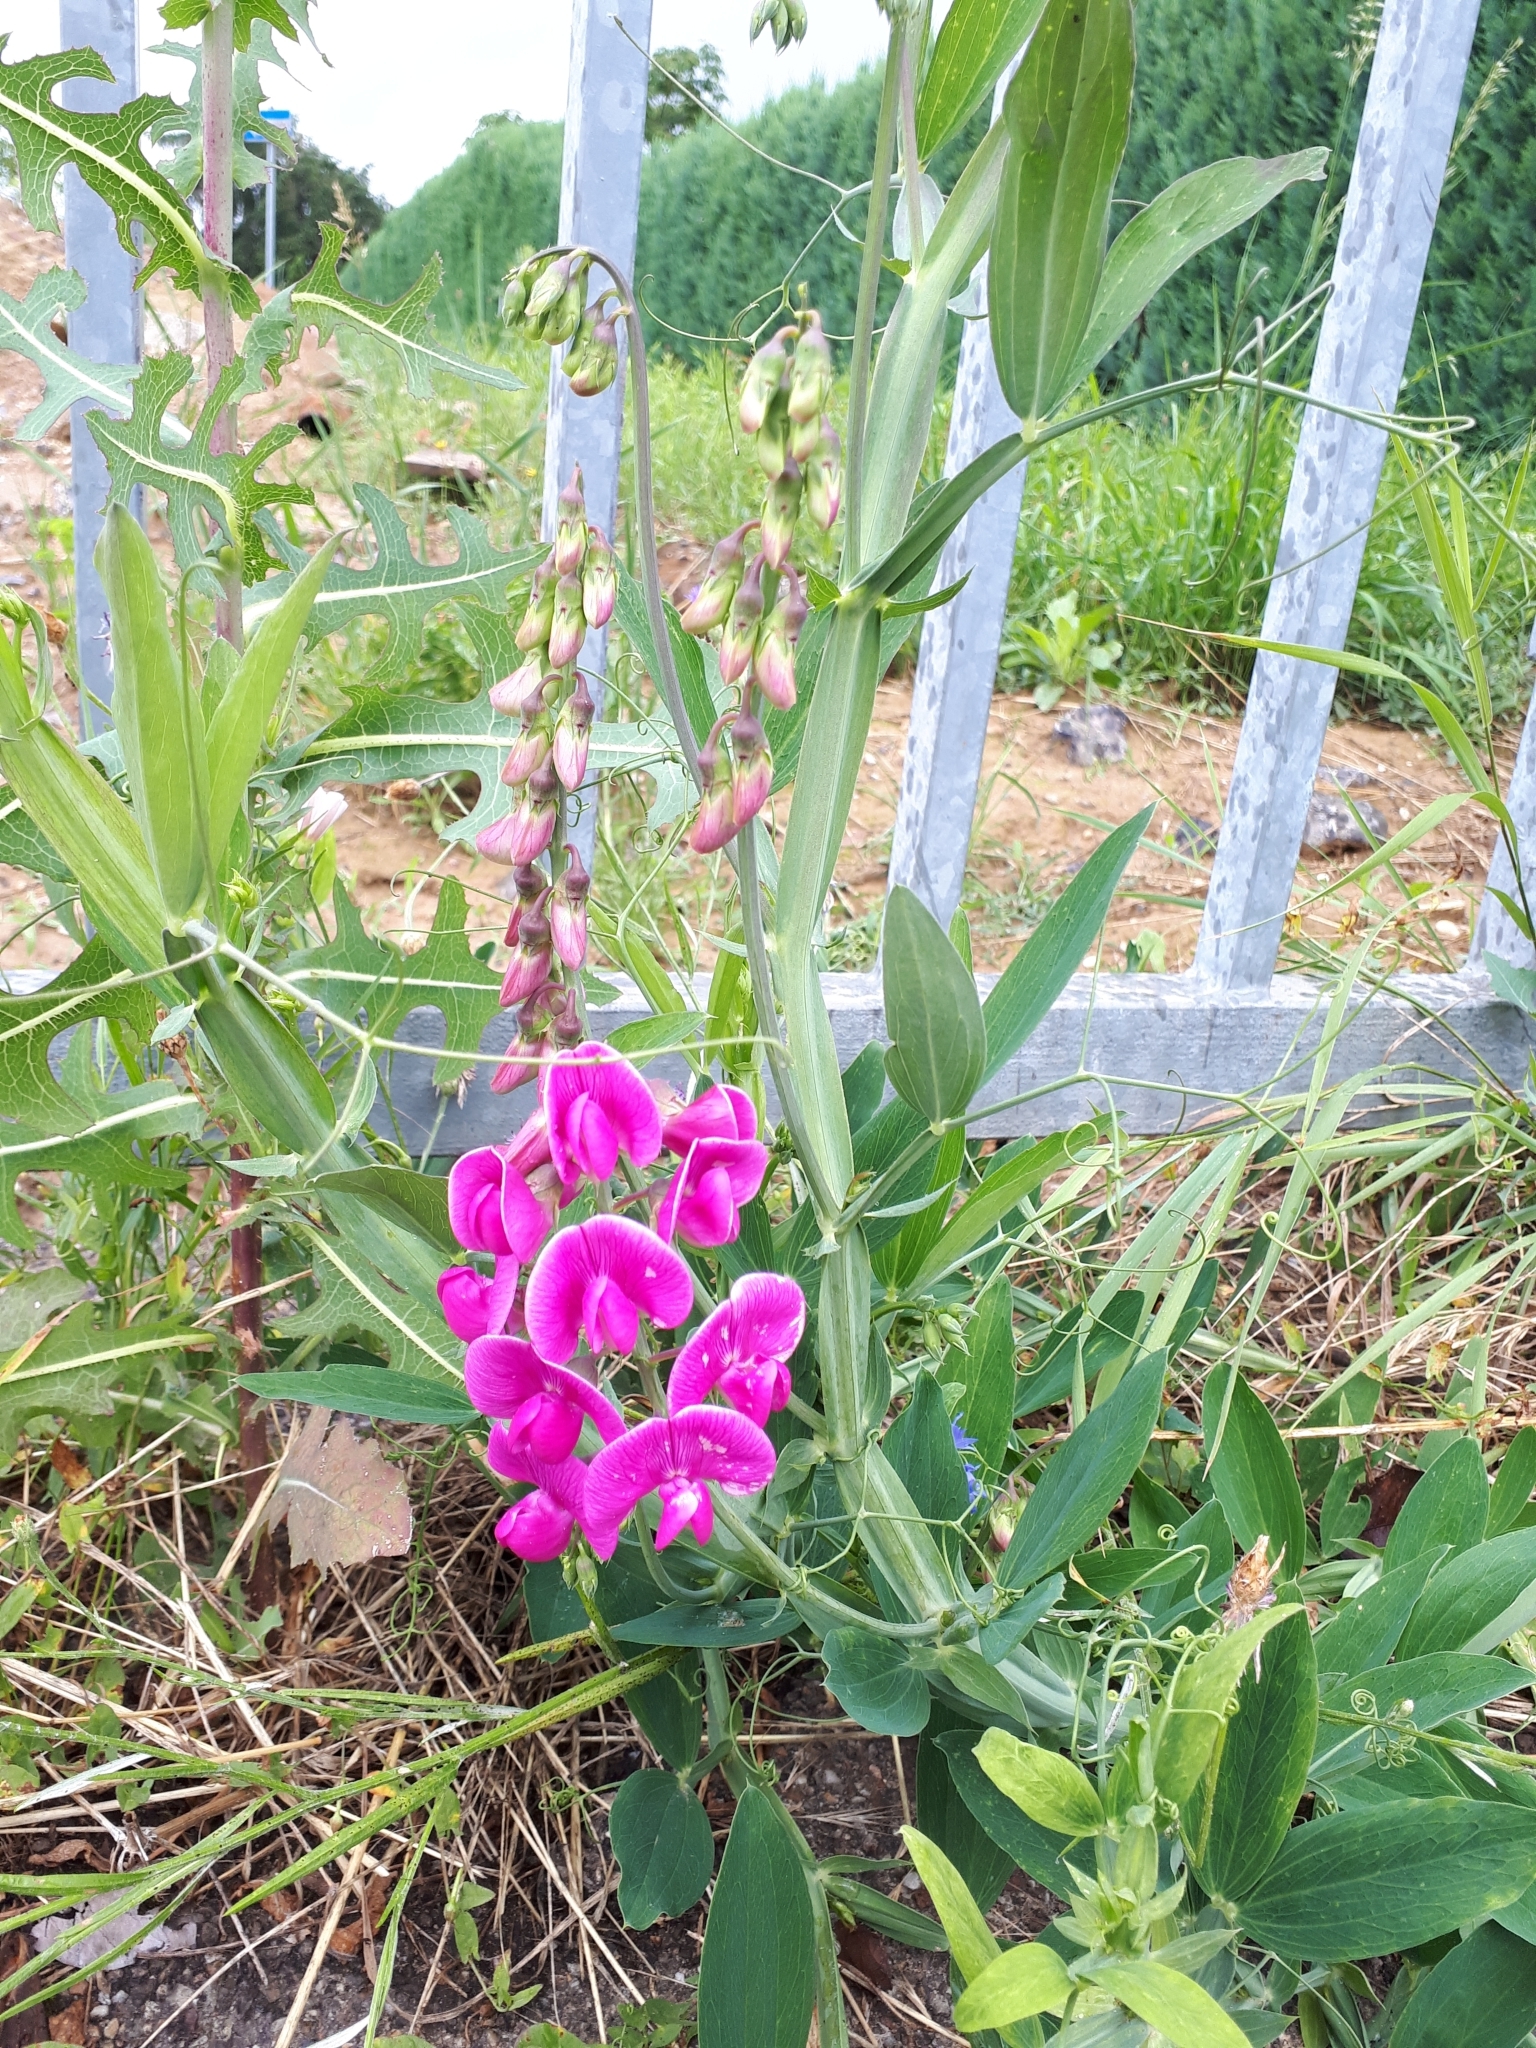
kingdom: Plantae
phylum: Tracheophyta
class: Magnoliopsida
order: Fabales
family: Fabaceae
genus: Lathyrus
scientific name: Lathyrus latifolius
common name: Perennial pea
